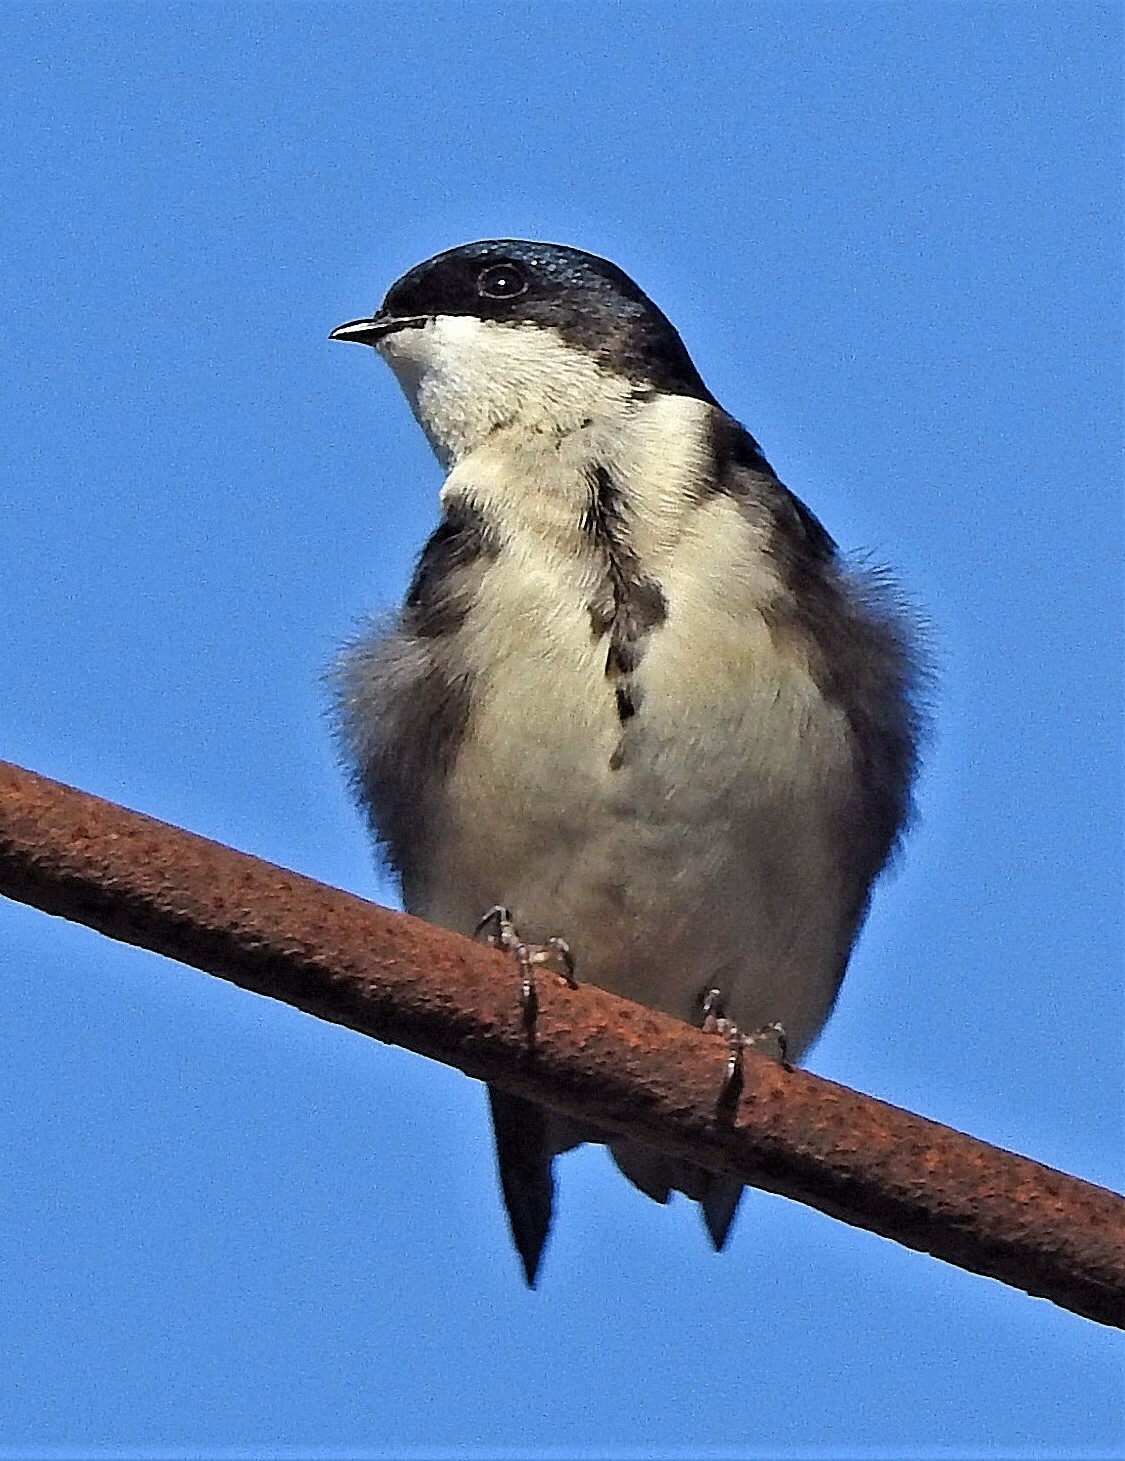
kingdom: Animalia
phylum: Chordata
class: Aves
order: Passeriformes
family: Hirundinidae
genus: Notiochelidon
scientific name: Notiochelidon cyanoleuca
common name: Blue-and-white swallow
